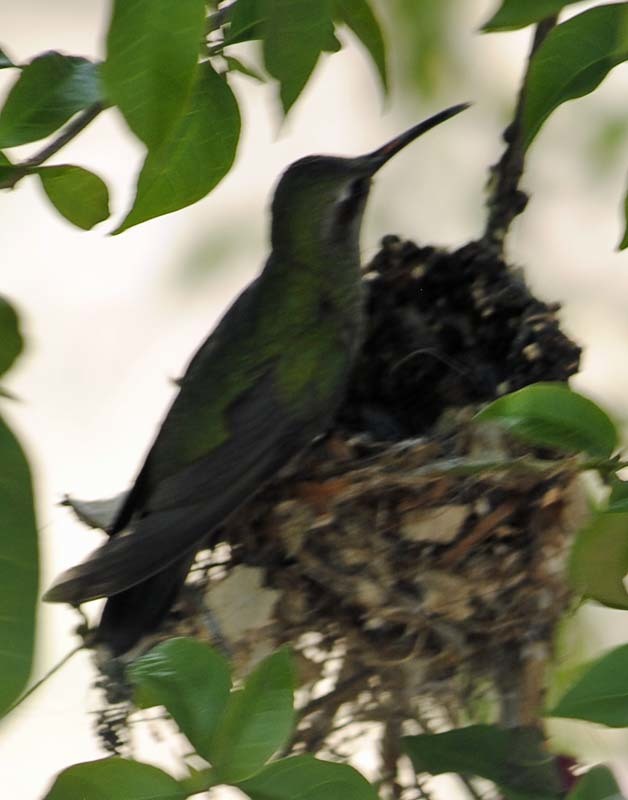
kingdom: Animalia
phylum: Chordata
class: Aves
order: Apodiformes
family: Trochilidae
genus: Cynanthus
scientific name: Cynanthus latirostris
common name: Broad-billed hummingbird
